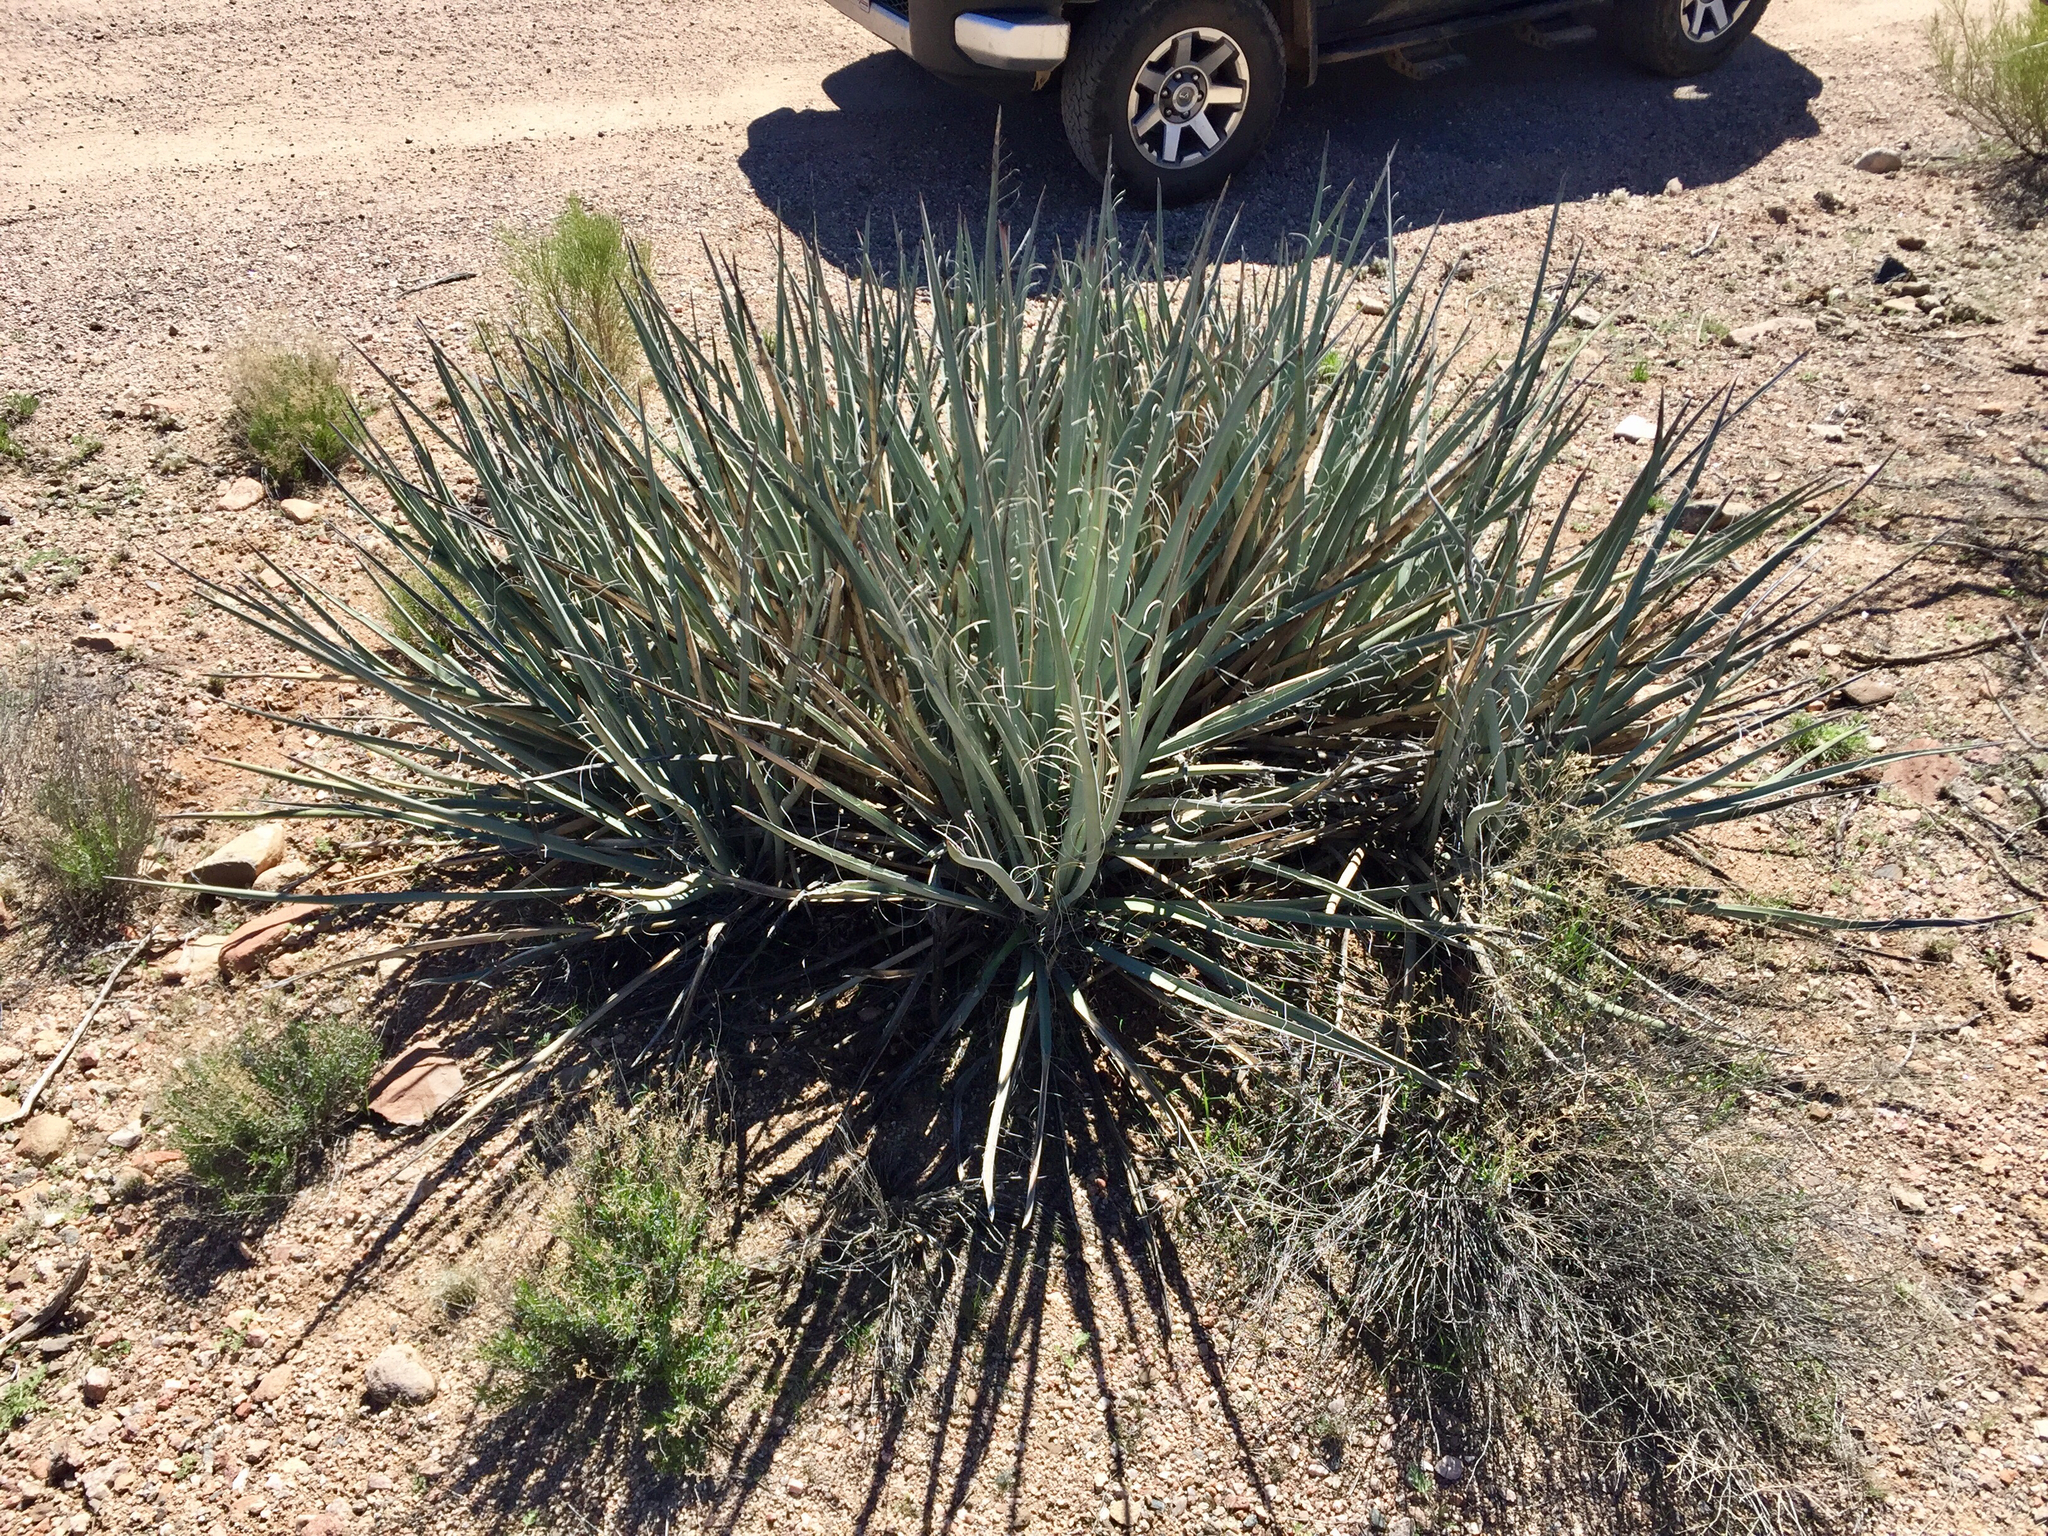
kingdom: Plantae
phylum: Tracheophyta
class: Liliopsida
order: Asparagales
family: Asparagaceae
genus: Yucca
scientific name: Yucca baccata
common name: Banana yucca
